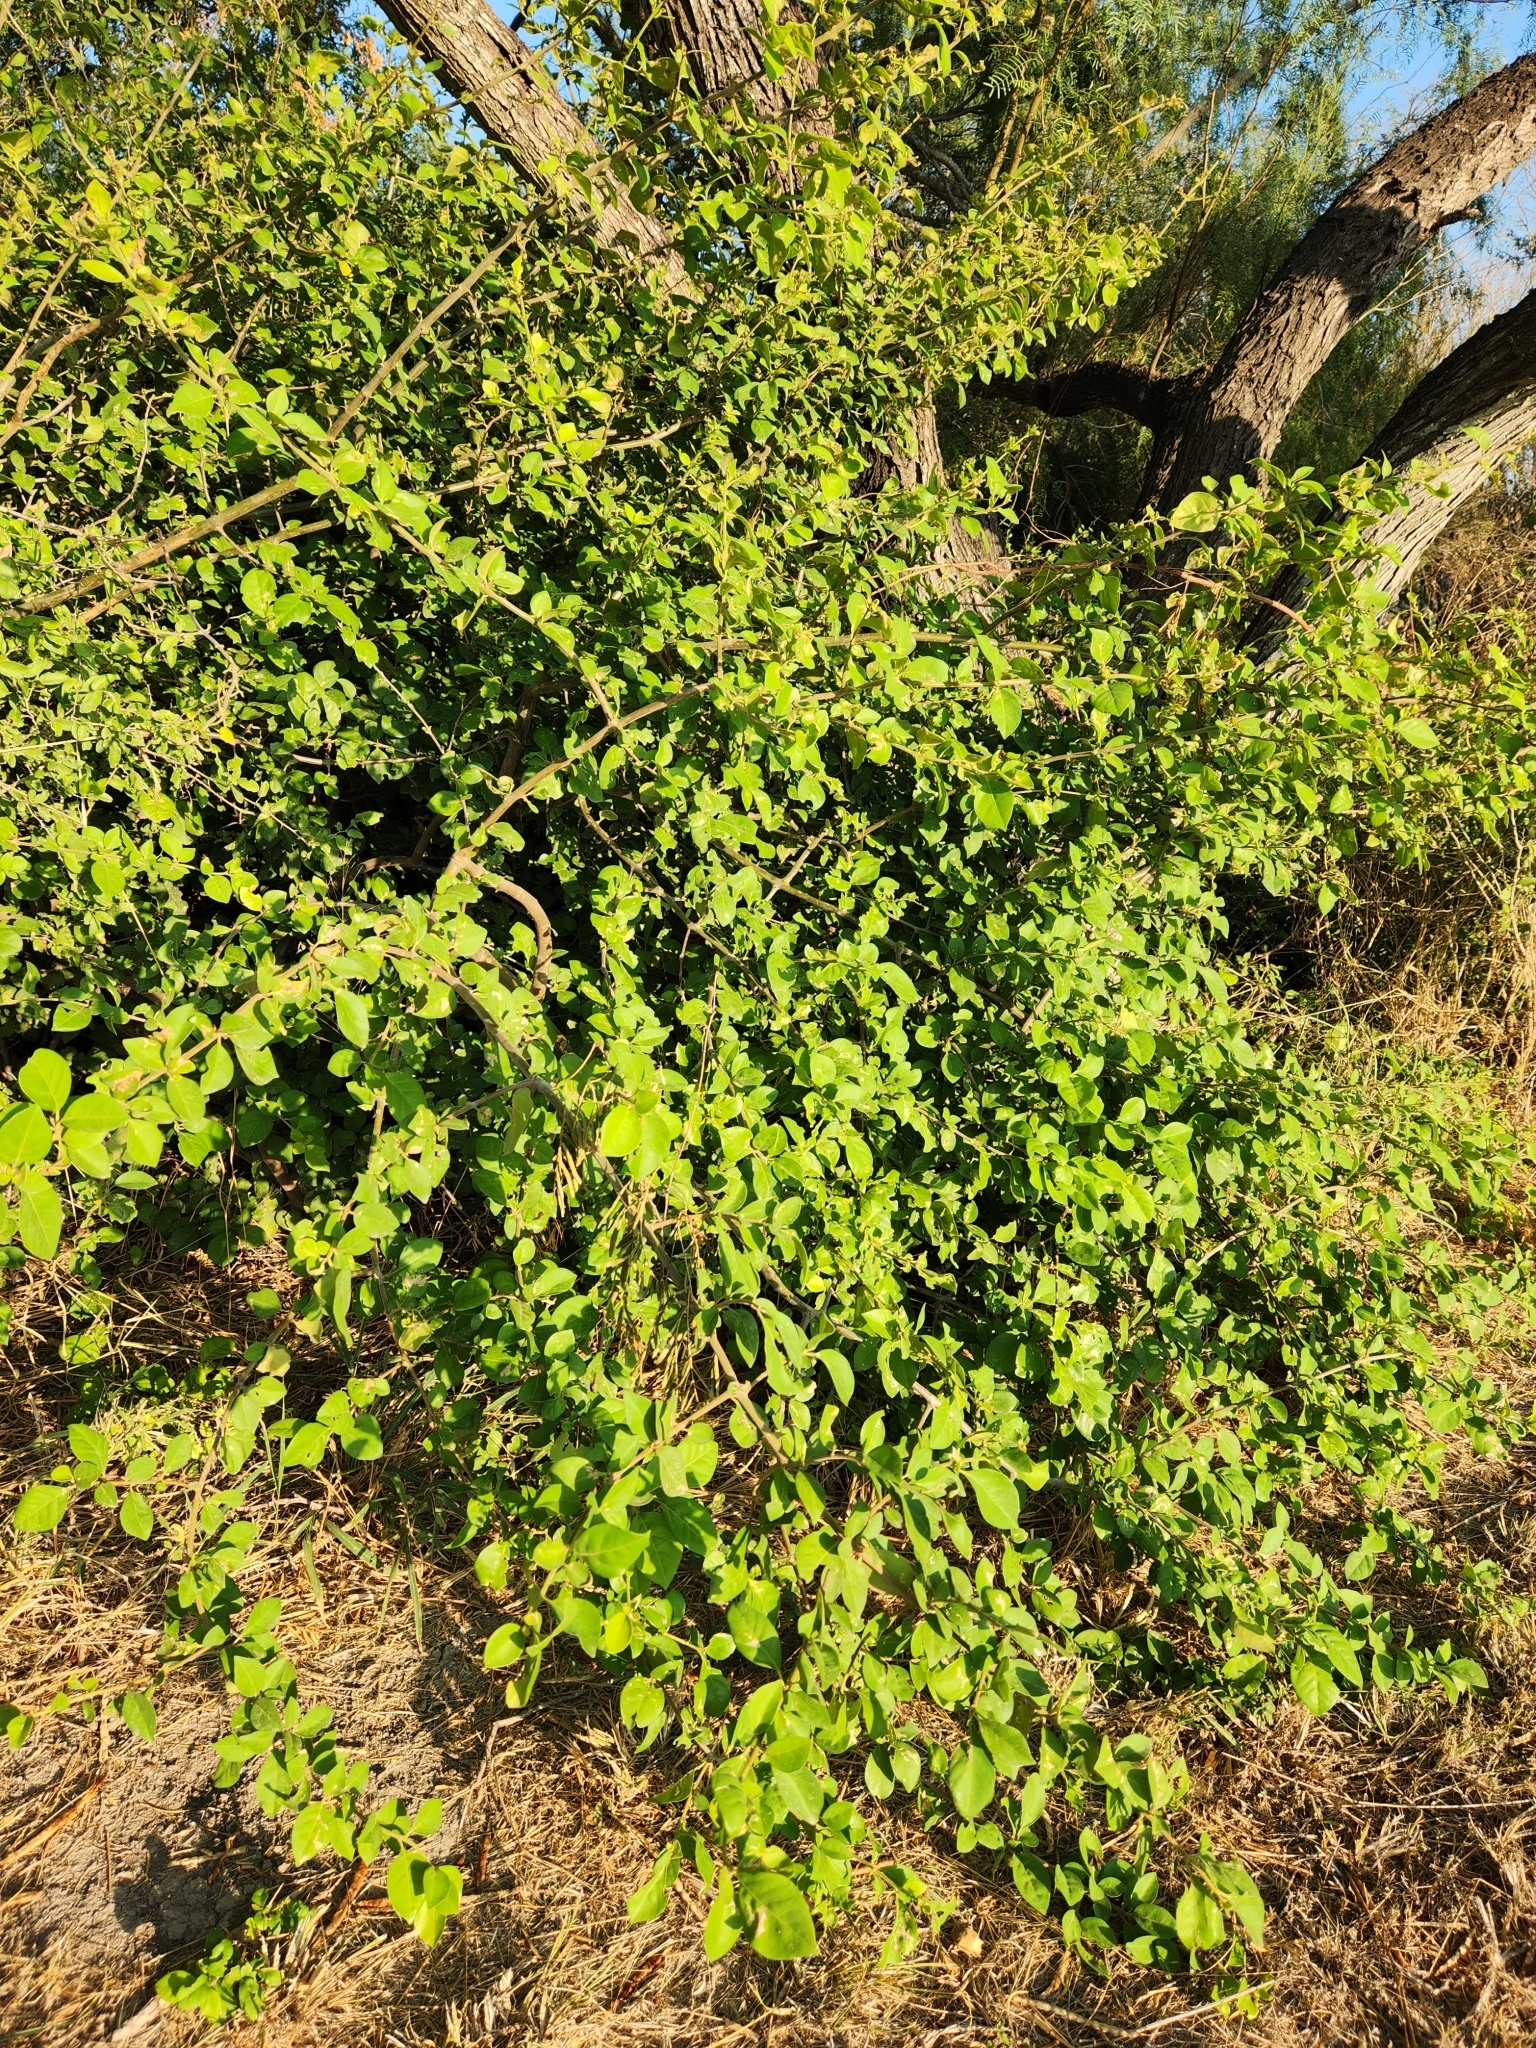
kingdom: Plantae
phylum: Tracheophyta
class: Magnoliopsida
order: Caryophyllales
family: Nyctaginaceae
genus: Pisonia
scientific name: Pisonia aculeata
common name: Cockspur vine
